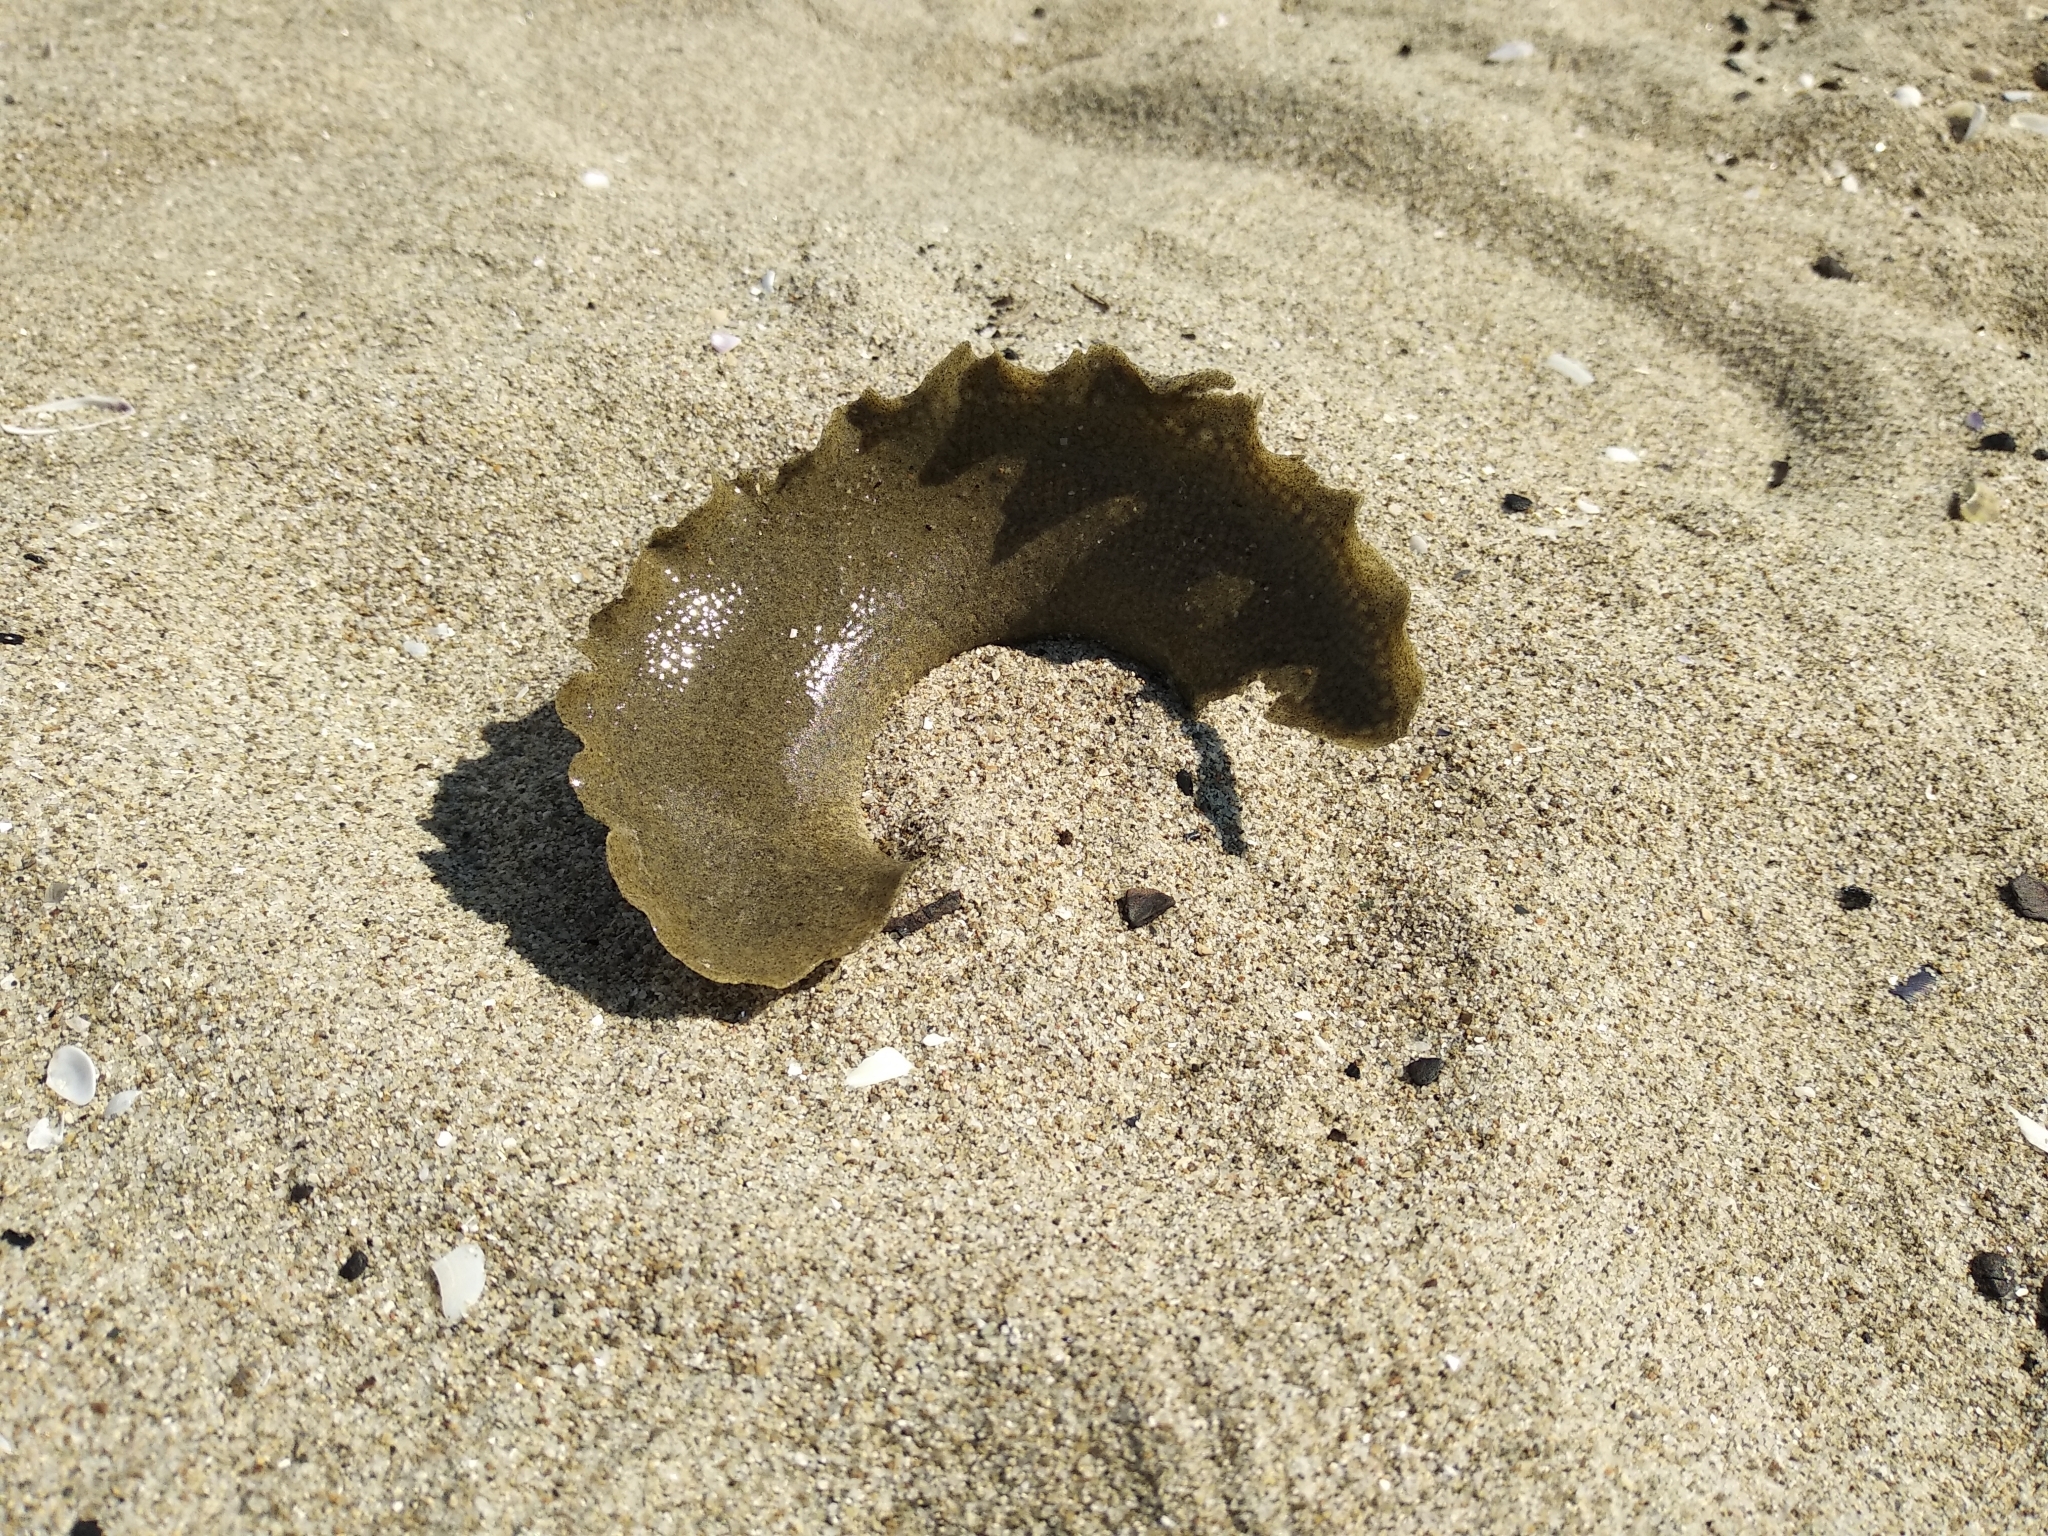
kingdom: Animalia
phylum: Mollusca
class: Gastropoda
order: Littorinimorpha
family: Naticidae
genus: Neverita
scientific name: Neverita josephinia
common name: Josephine's moonsnail
